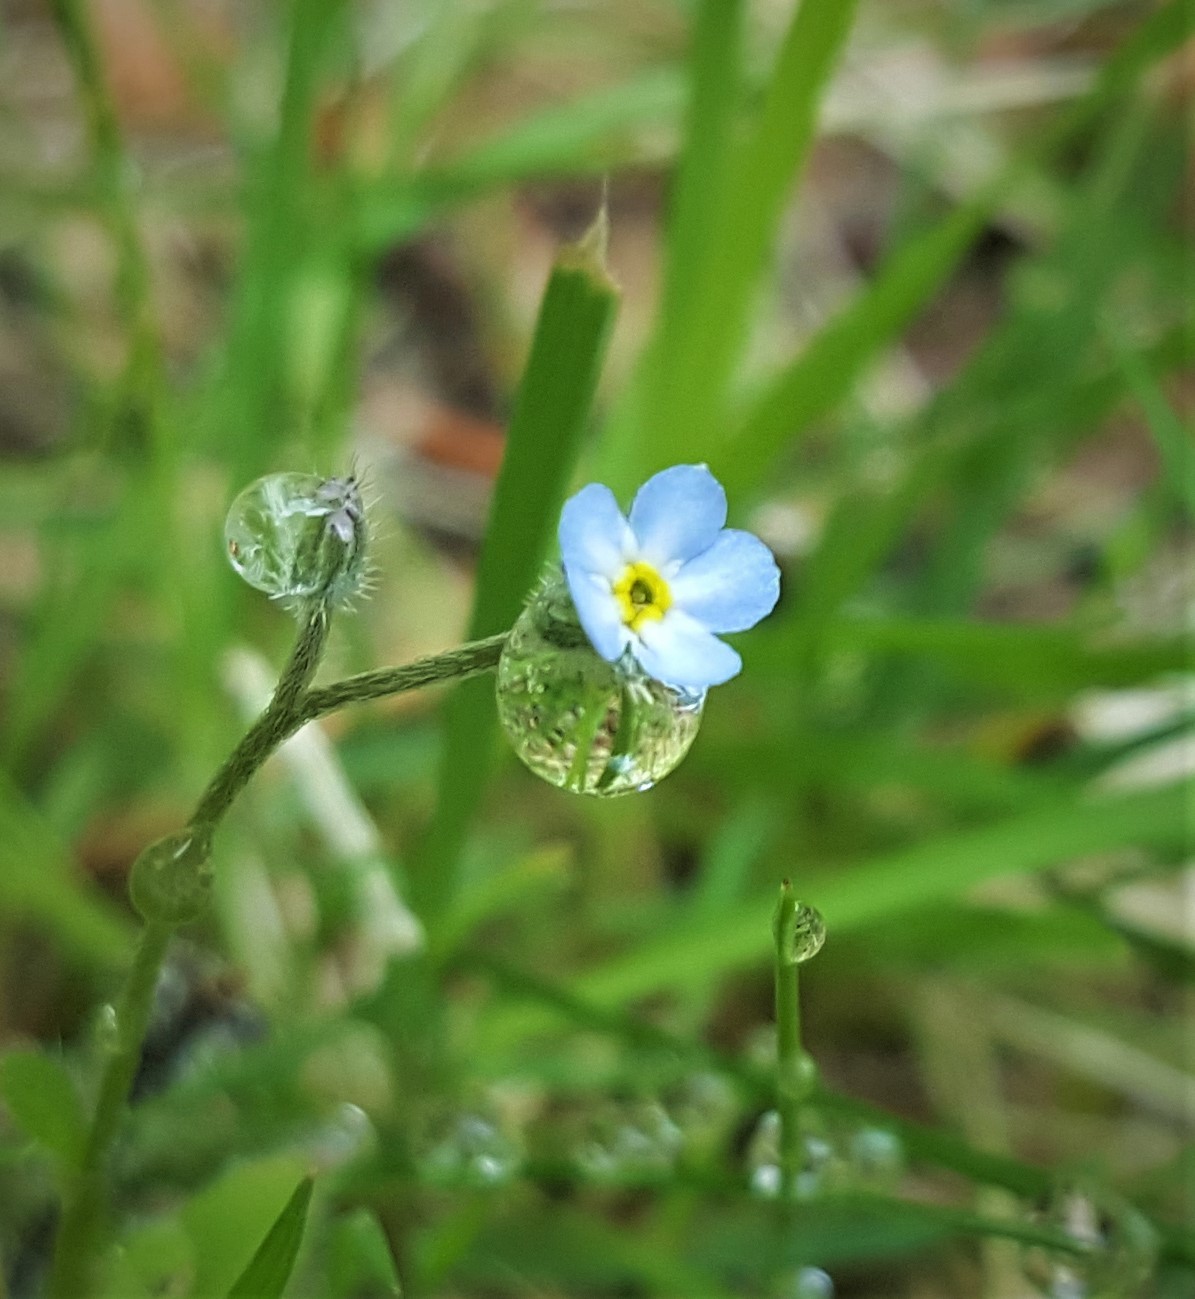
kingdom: Plantae
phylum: Tracheophyta
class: Magnoliopsida
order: Boraginales
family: Boraginaceae
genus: Myosotis
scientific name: Myosotis arvensis
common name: Field forget-me-not
